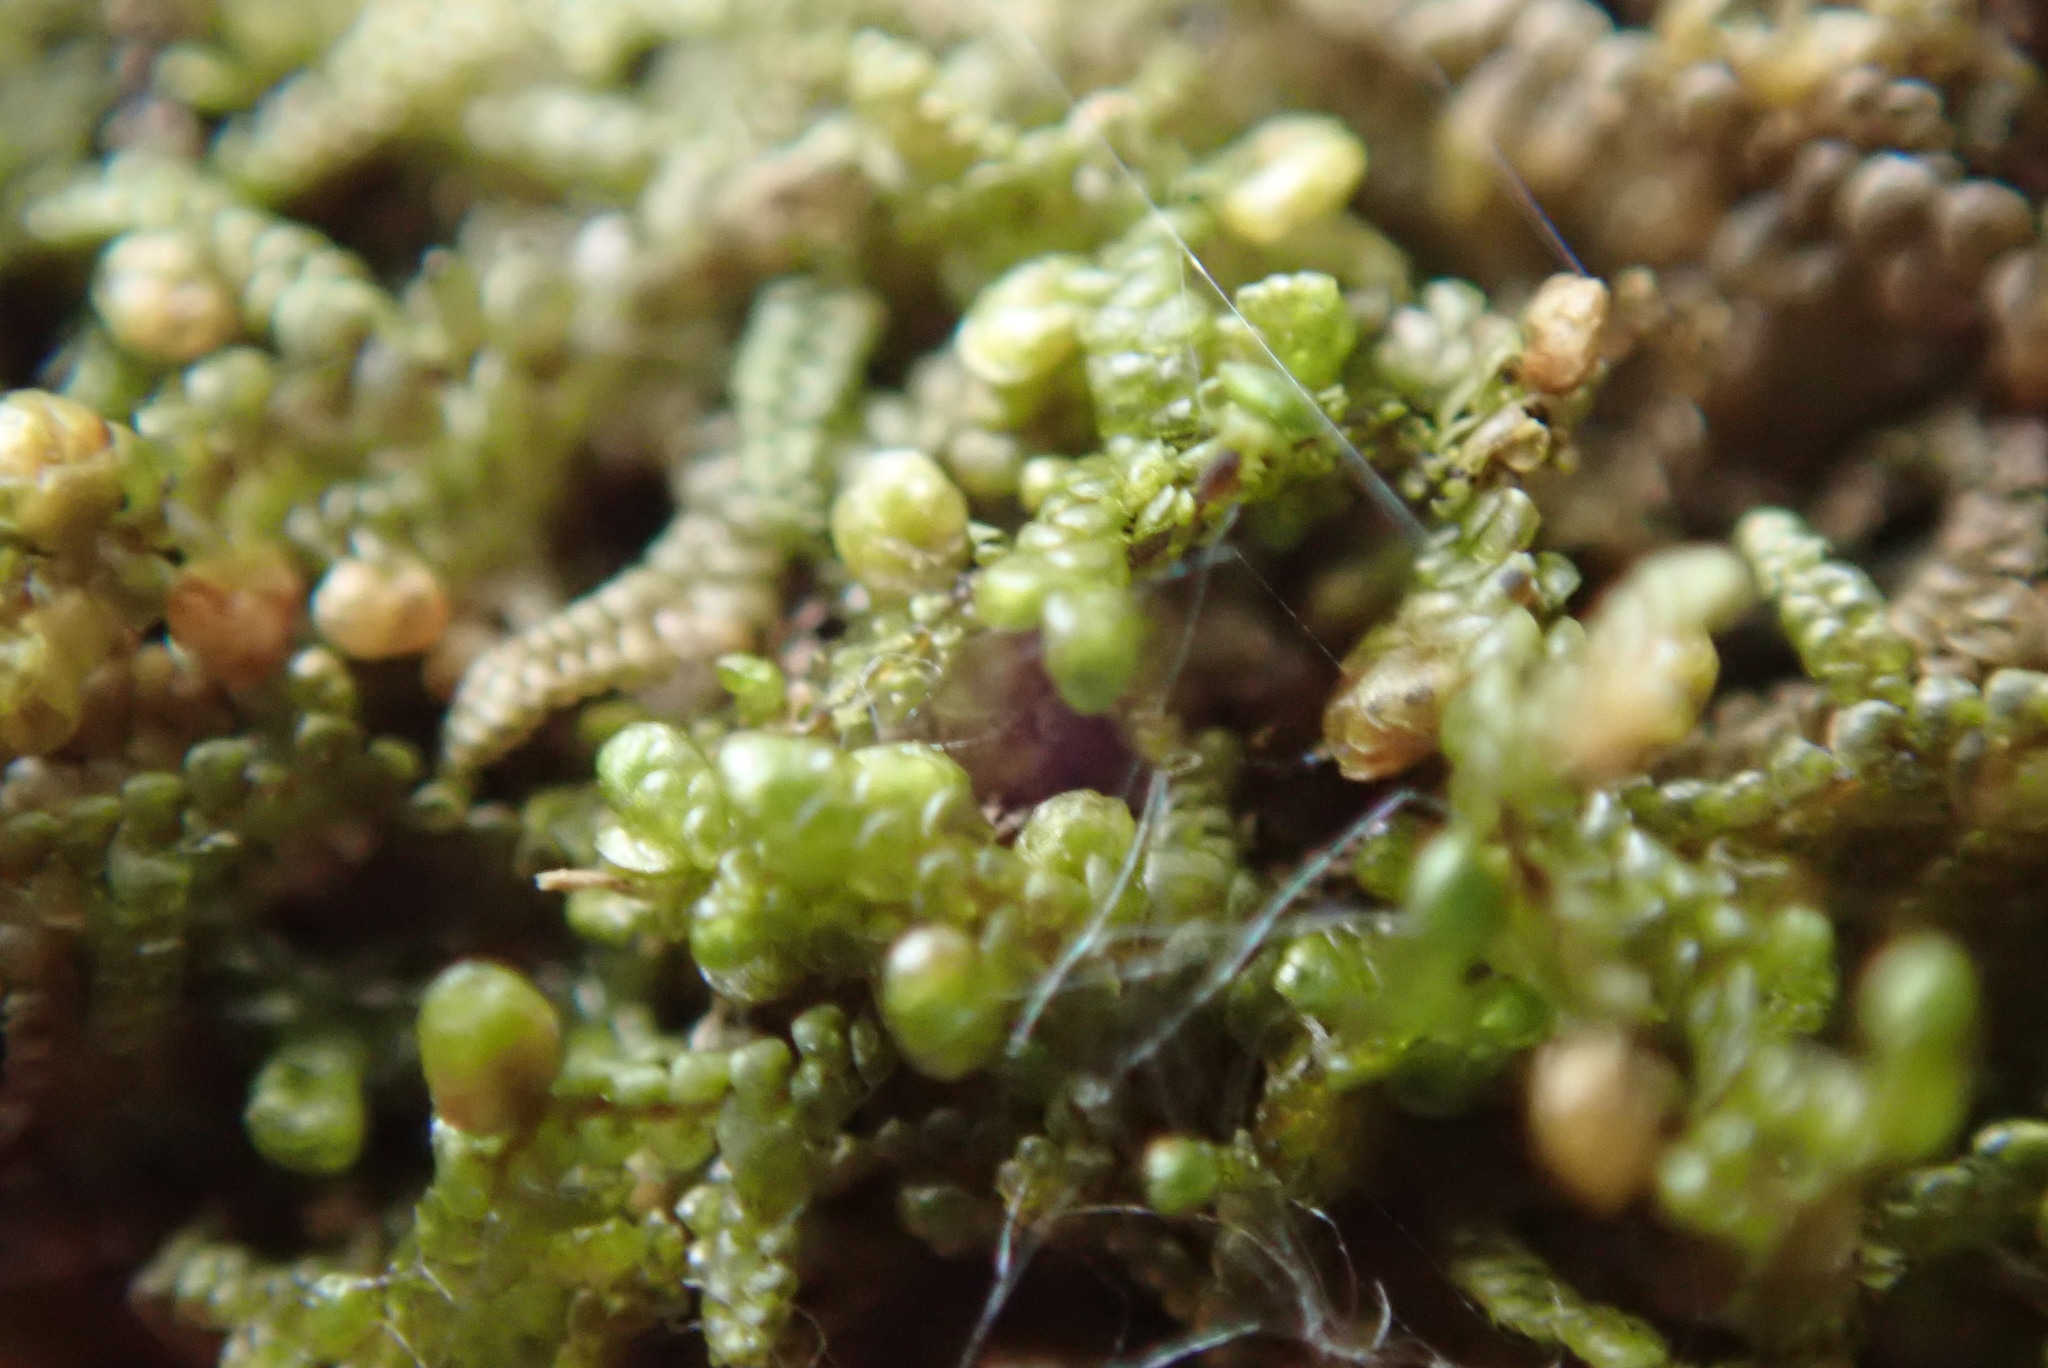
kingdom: Plantae
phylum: Marchantiophyta
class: Jungermanniopsida
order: Porellales
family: Frullaniaceae
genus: Frullania
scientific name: Frullania nisquallensis
